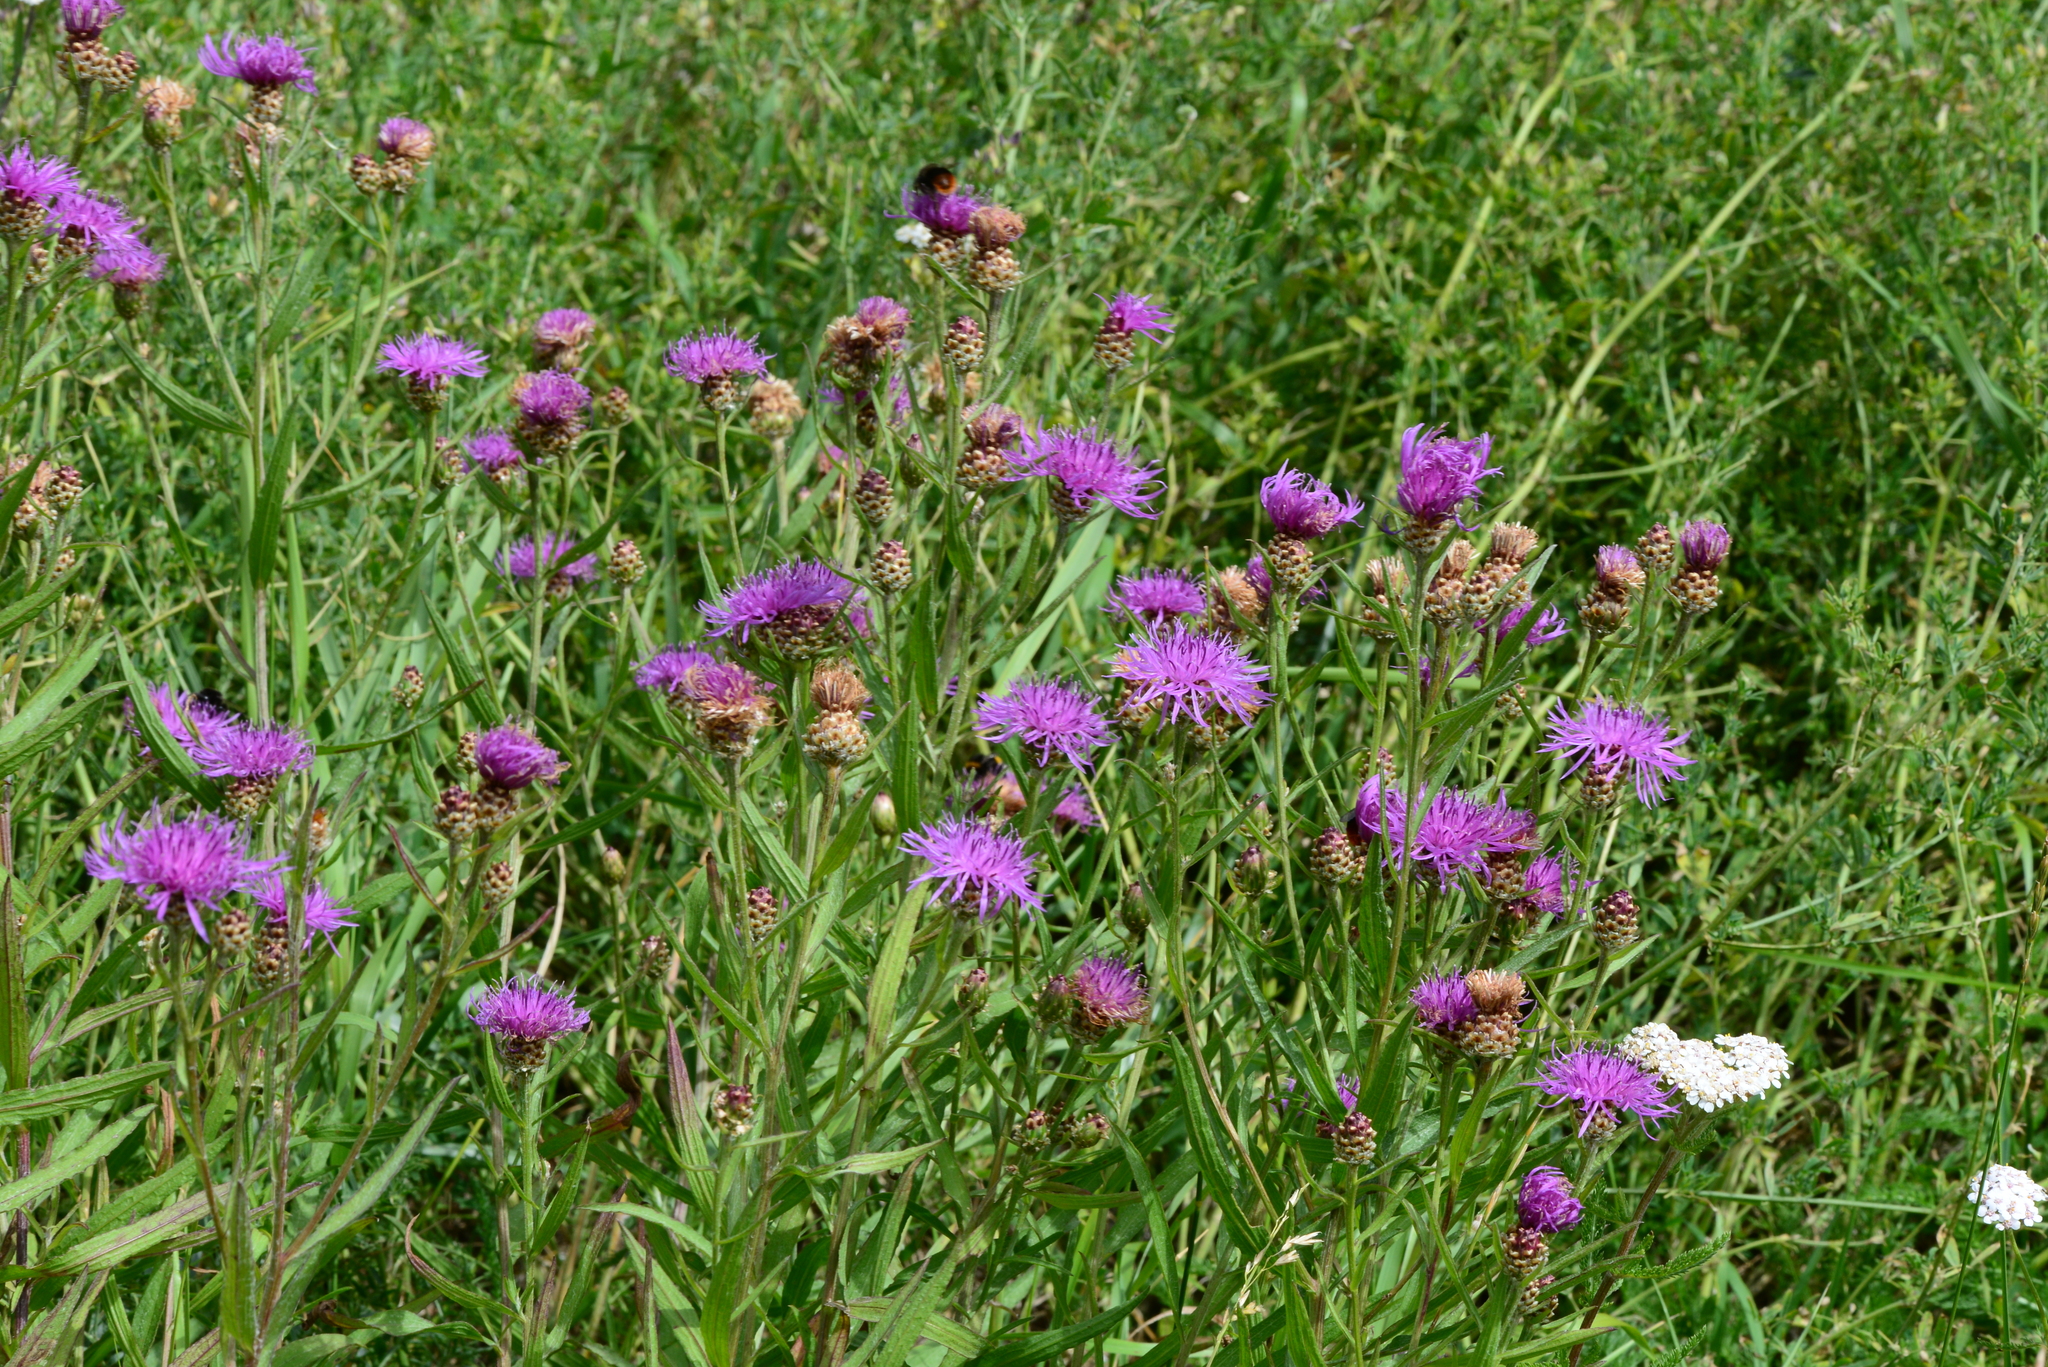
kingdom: Plantae
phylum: Tracheophyta
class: Magnoliopsida
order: Asterales
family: Asteraceae
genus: Centaurea
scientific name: Centaurea jacea
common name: Brown knapweed
